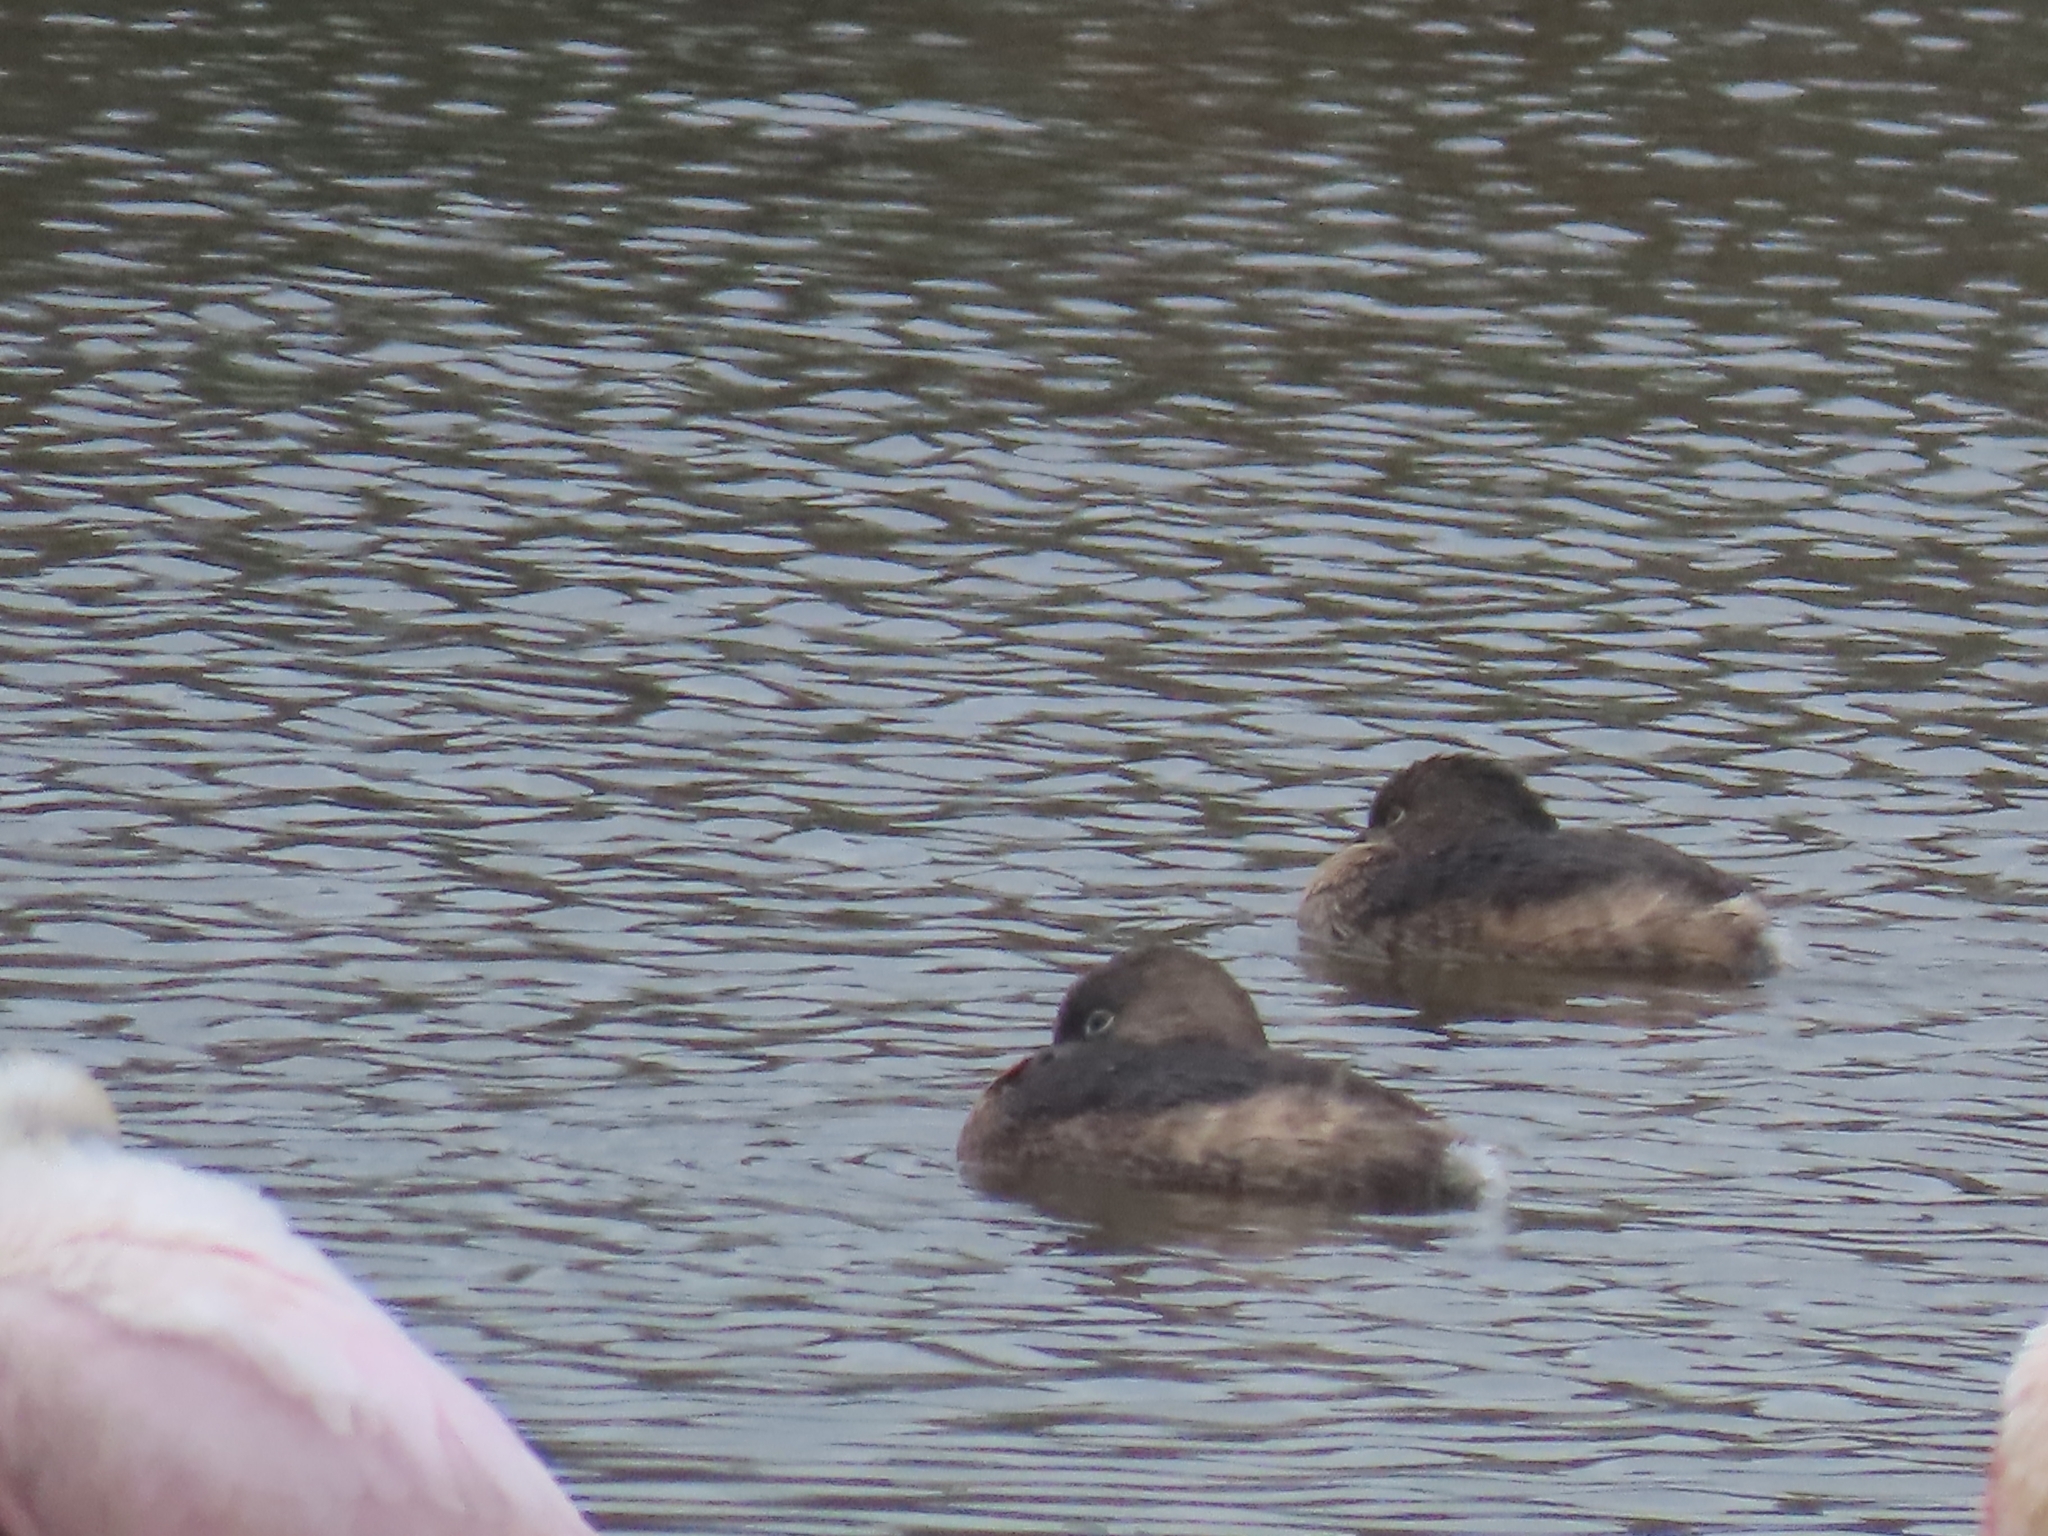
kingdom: Animalia
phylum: Chordata
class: Aves
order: Podicipediformes
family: Podicipedidae
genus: Podilymbus
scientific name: Podilymbus podiceps
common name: Pied-billed grebe
